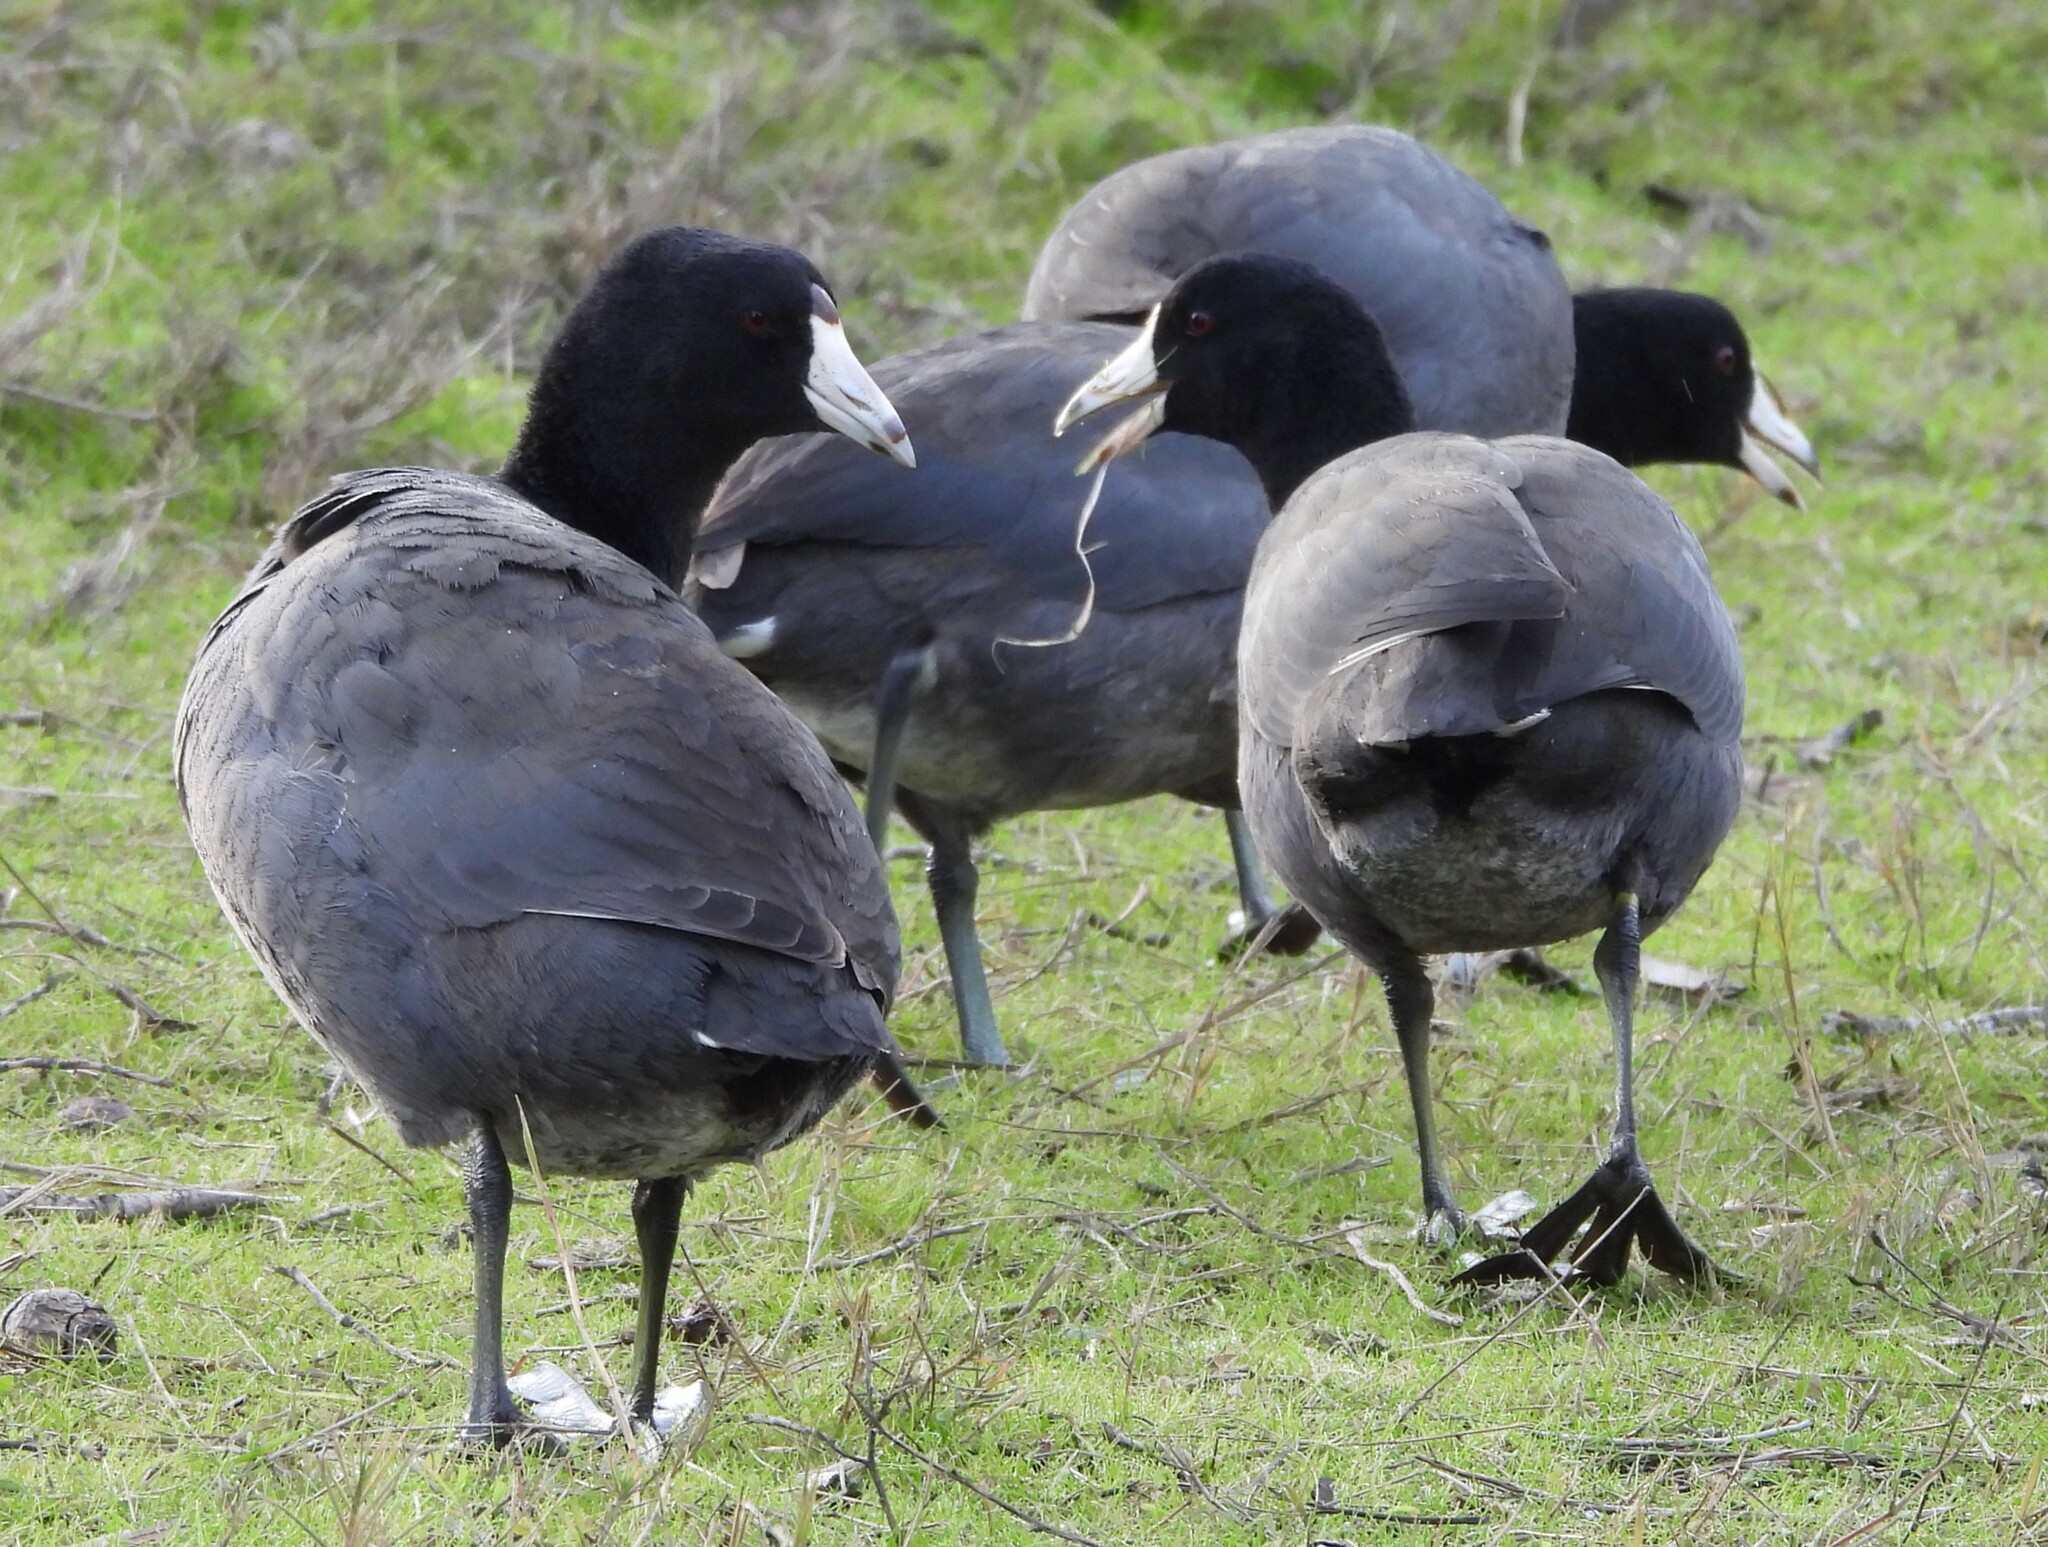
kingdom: Animalia
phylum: Chordata
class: Aves
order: Gruiformes
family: Rallidae
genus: Fulica
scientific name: Fulica americana
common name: American coot
